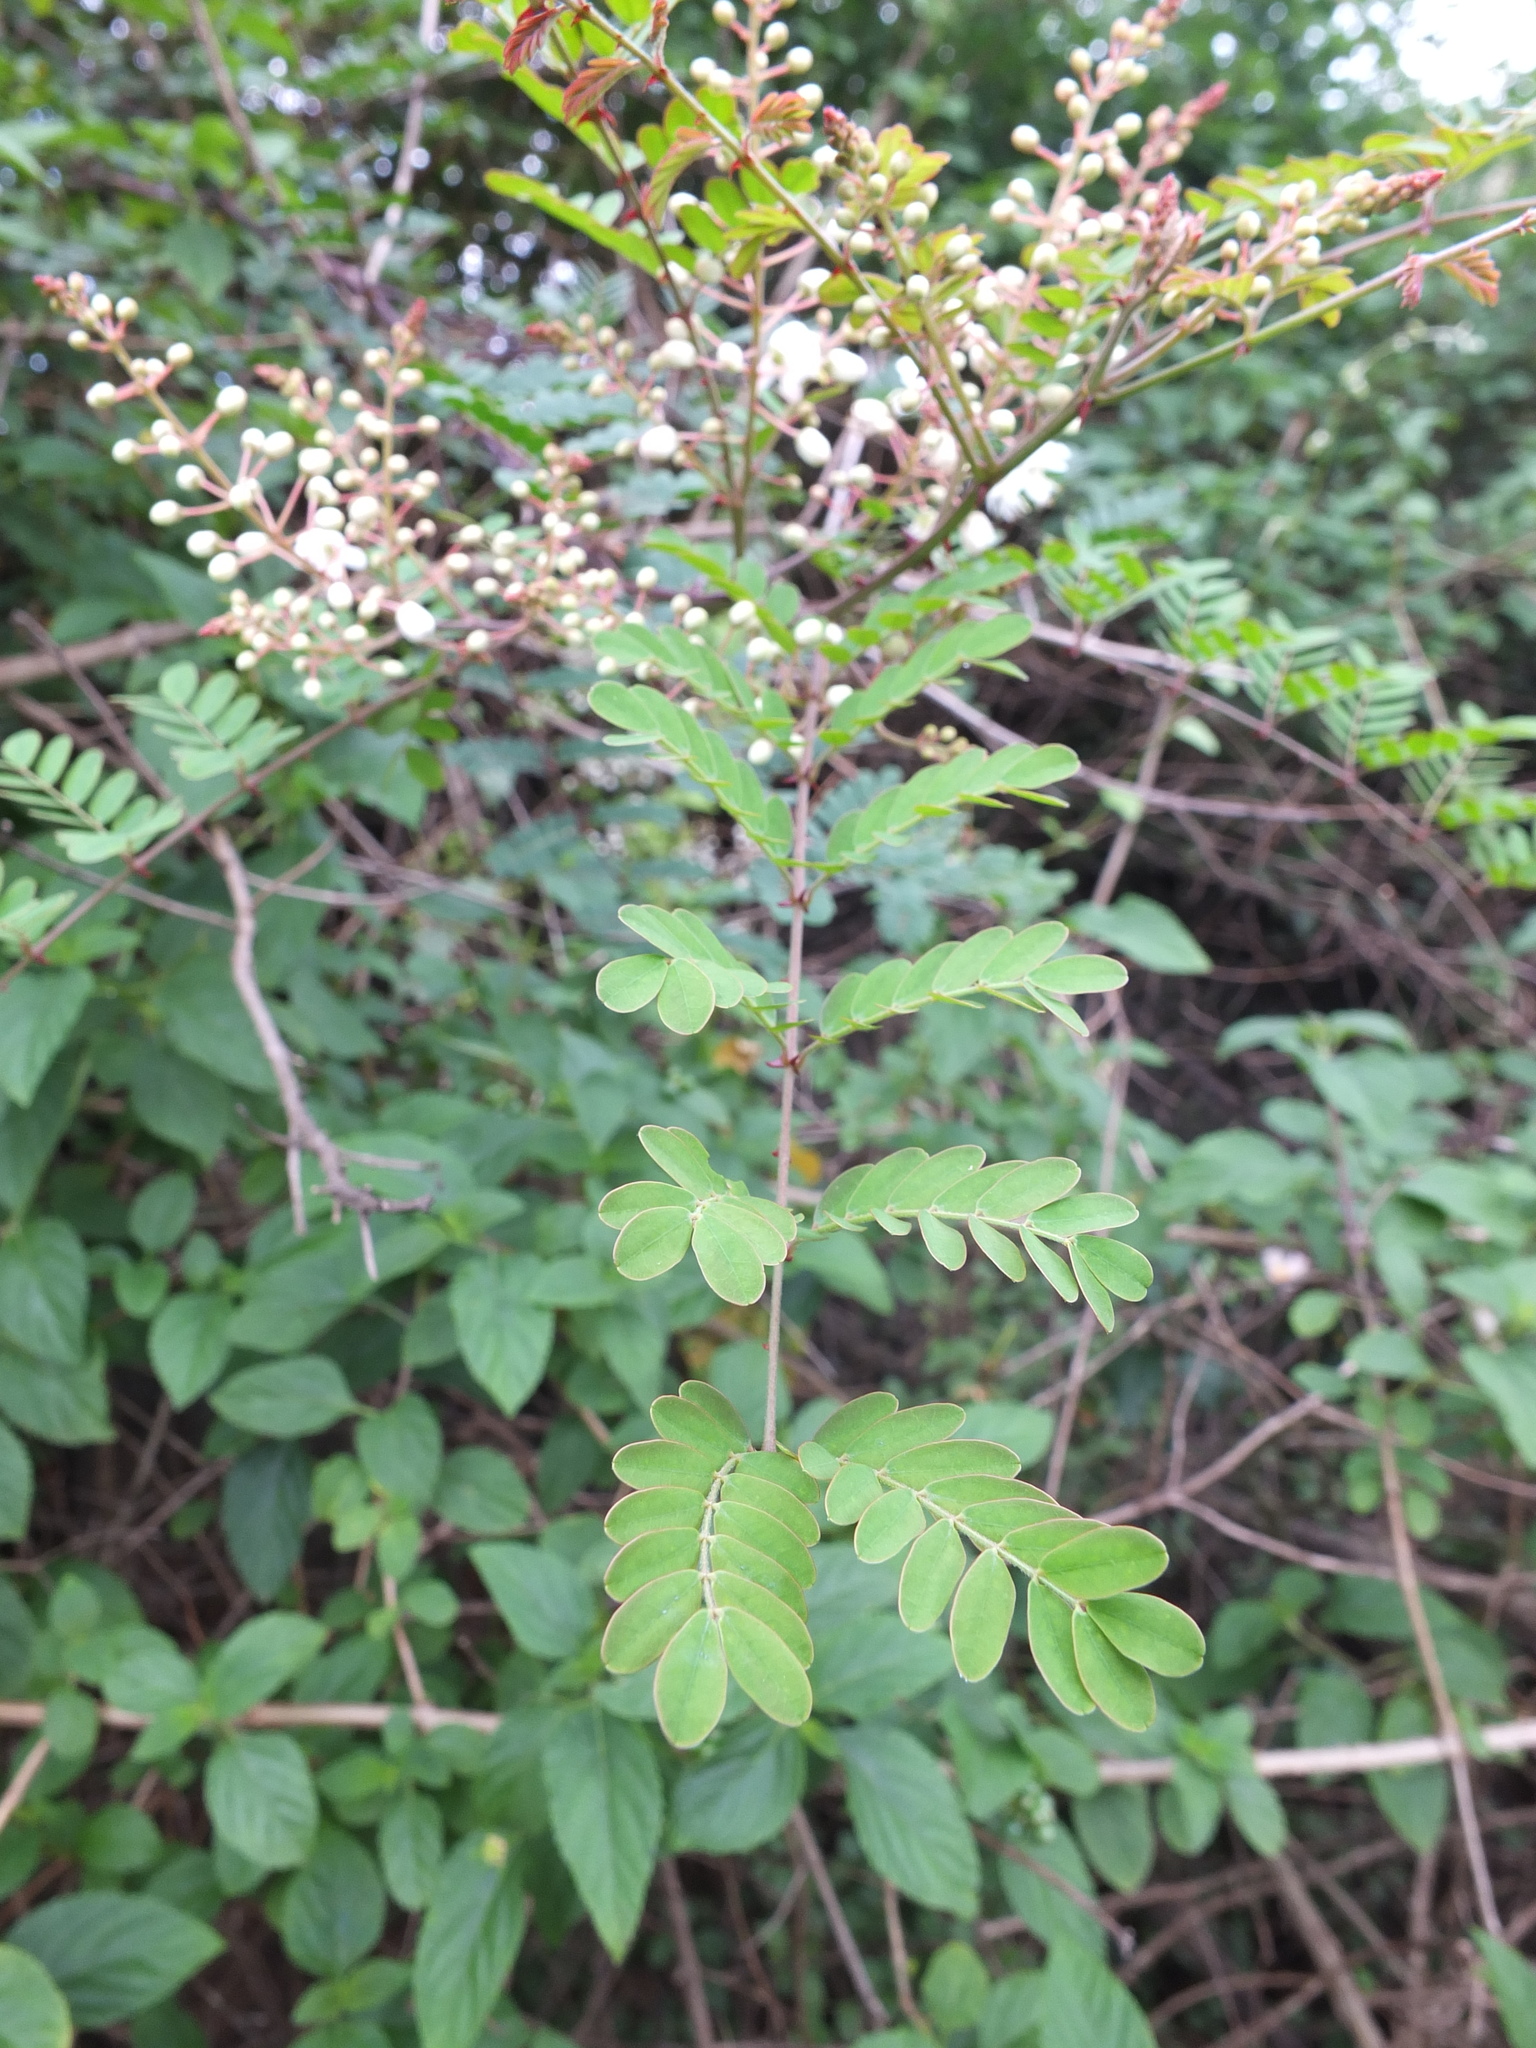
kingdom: Plantae
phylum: Tracheophyta
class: Magnoliopsida
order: Fabales
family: Fabaceae
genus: Pterolobium
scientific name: Pterolobium hexapetalum
